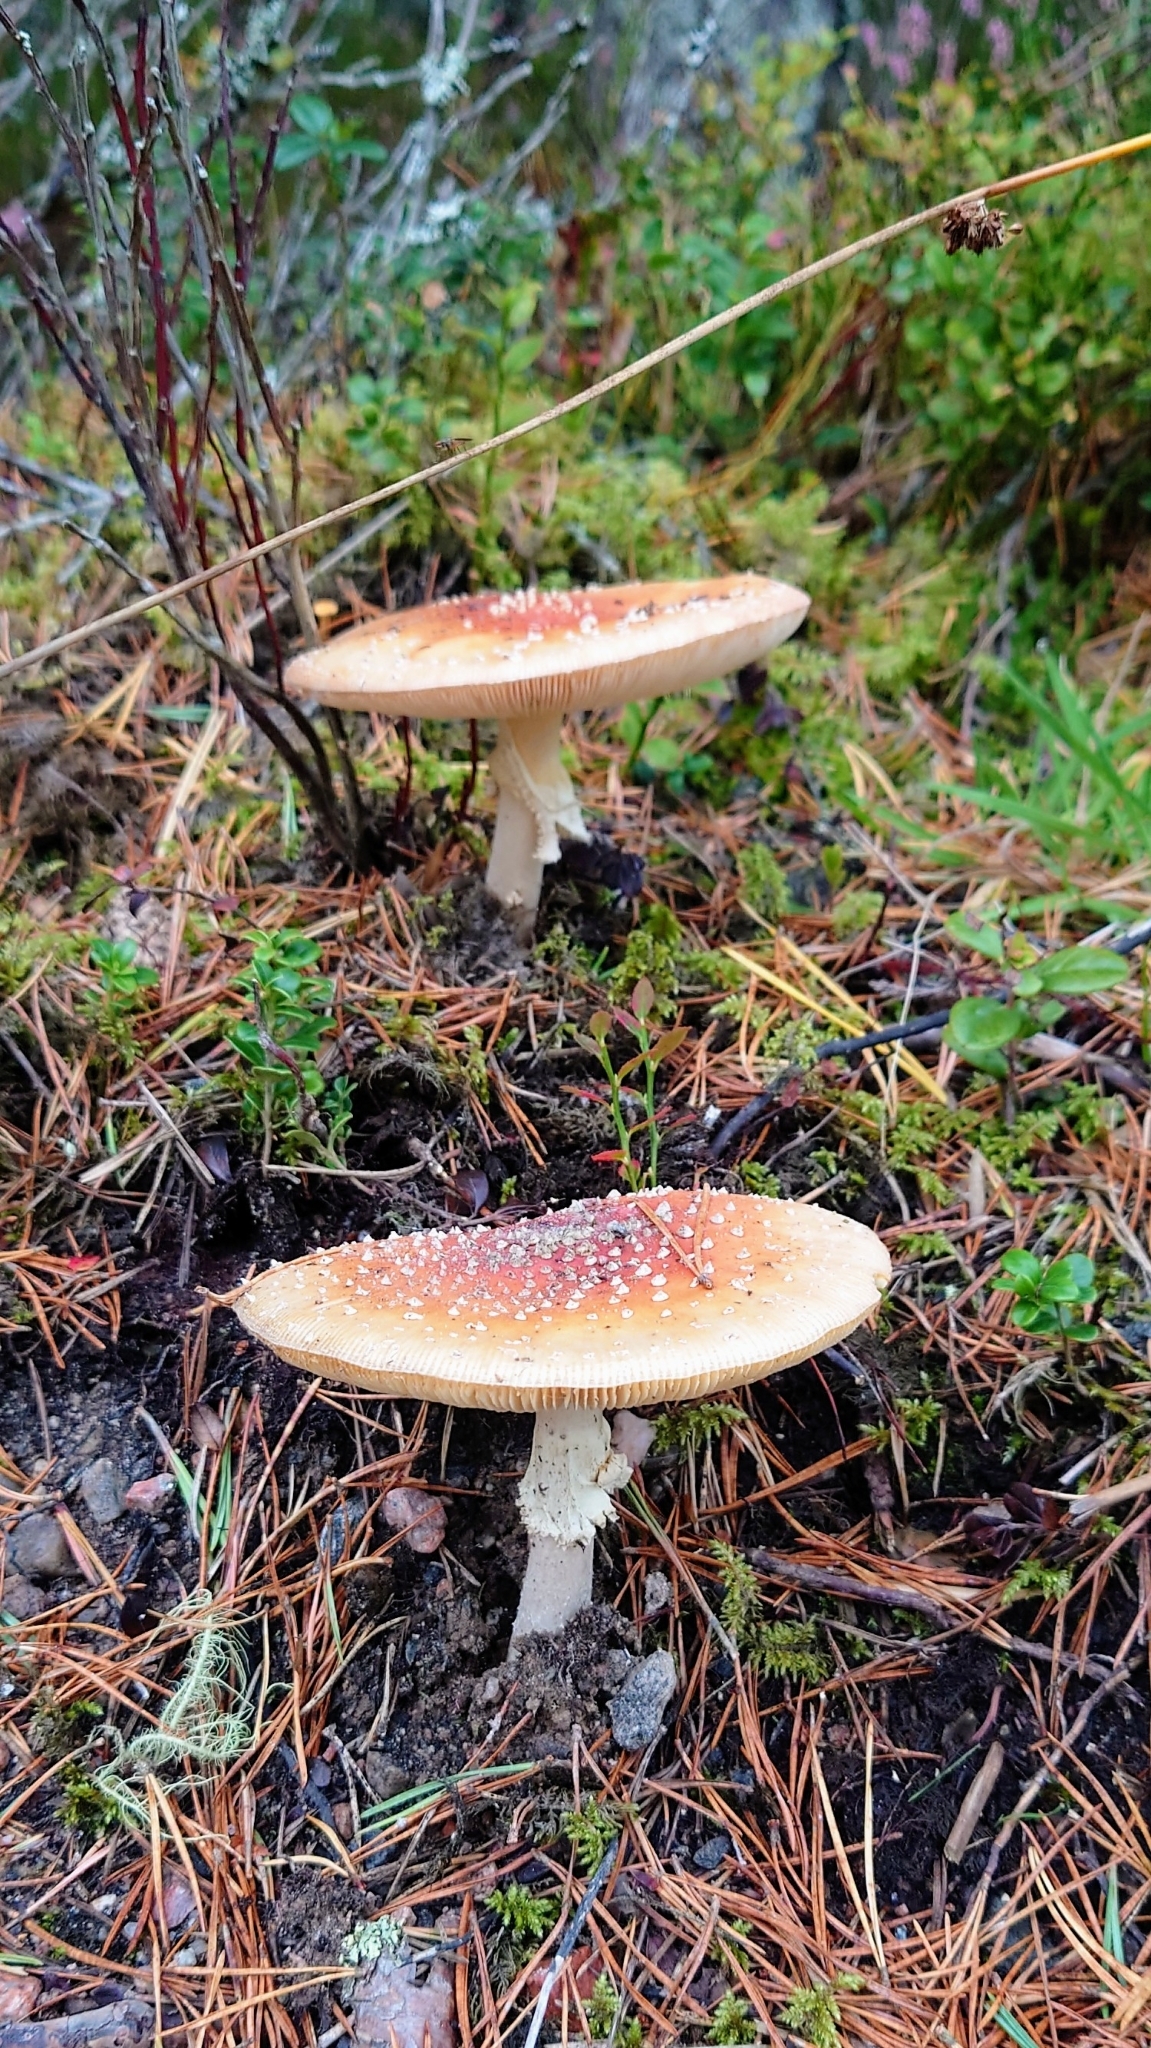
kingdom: Fungi
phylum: Basidiomycota
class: Agaricomycetes
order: Agaricales
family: Amanitaceae
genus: Amanita
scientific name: Amanita muscaria
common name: Fly agaric
